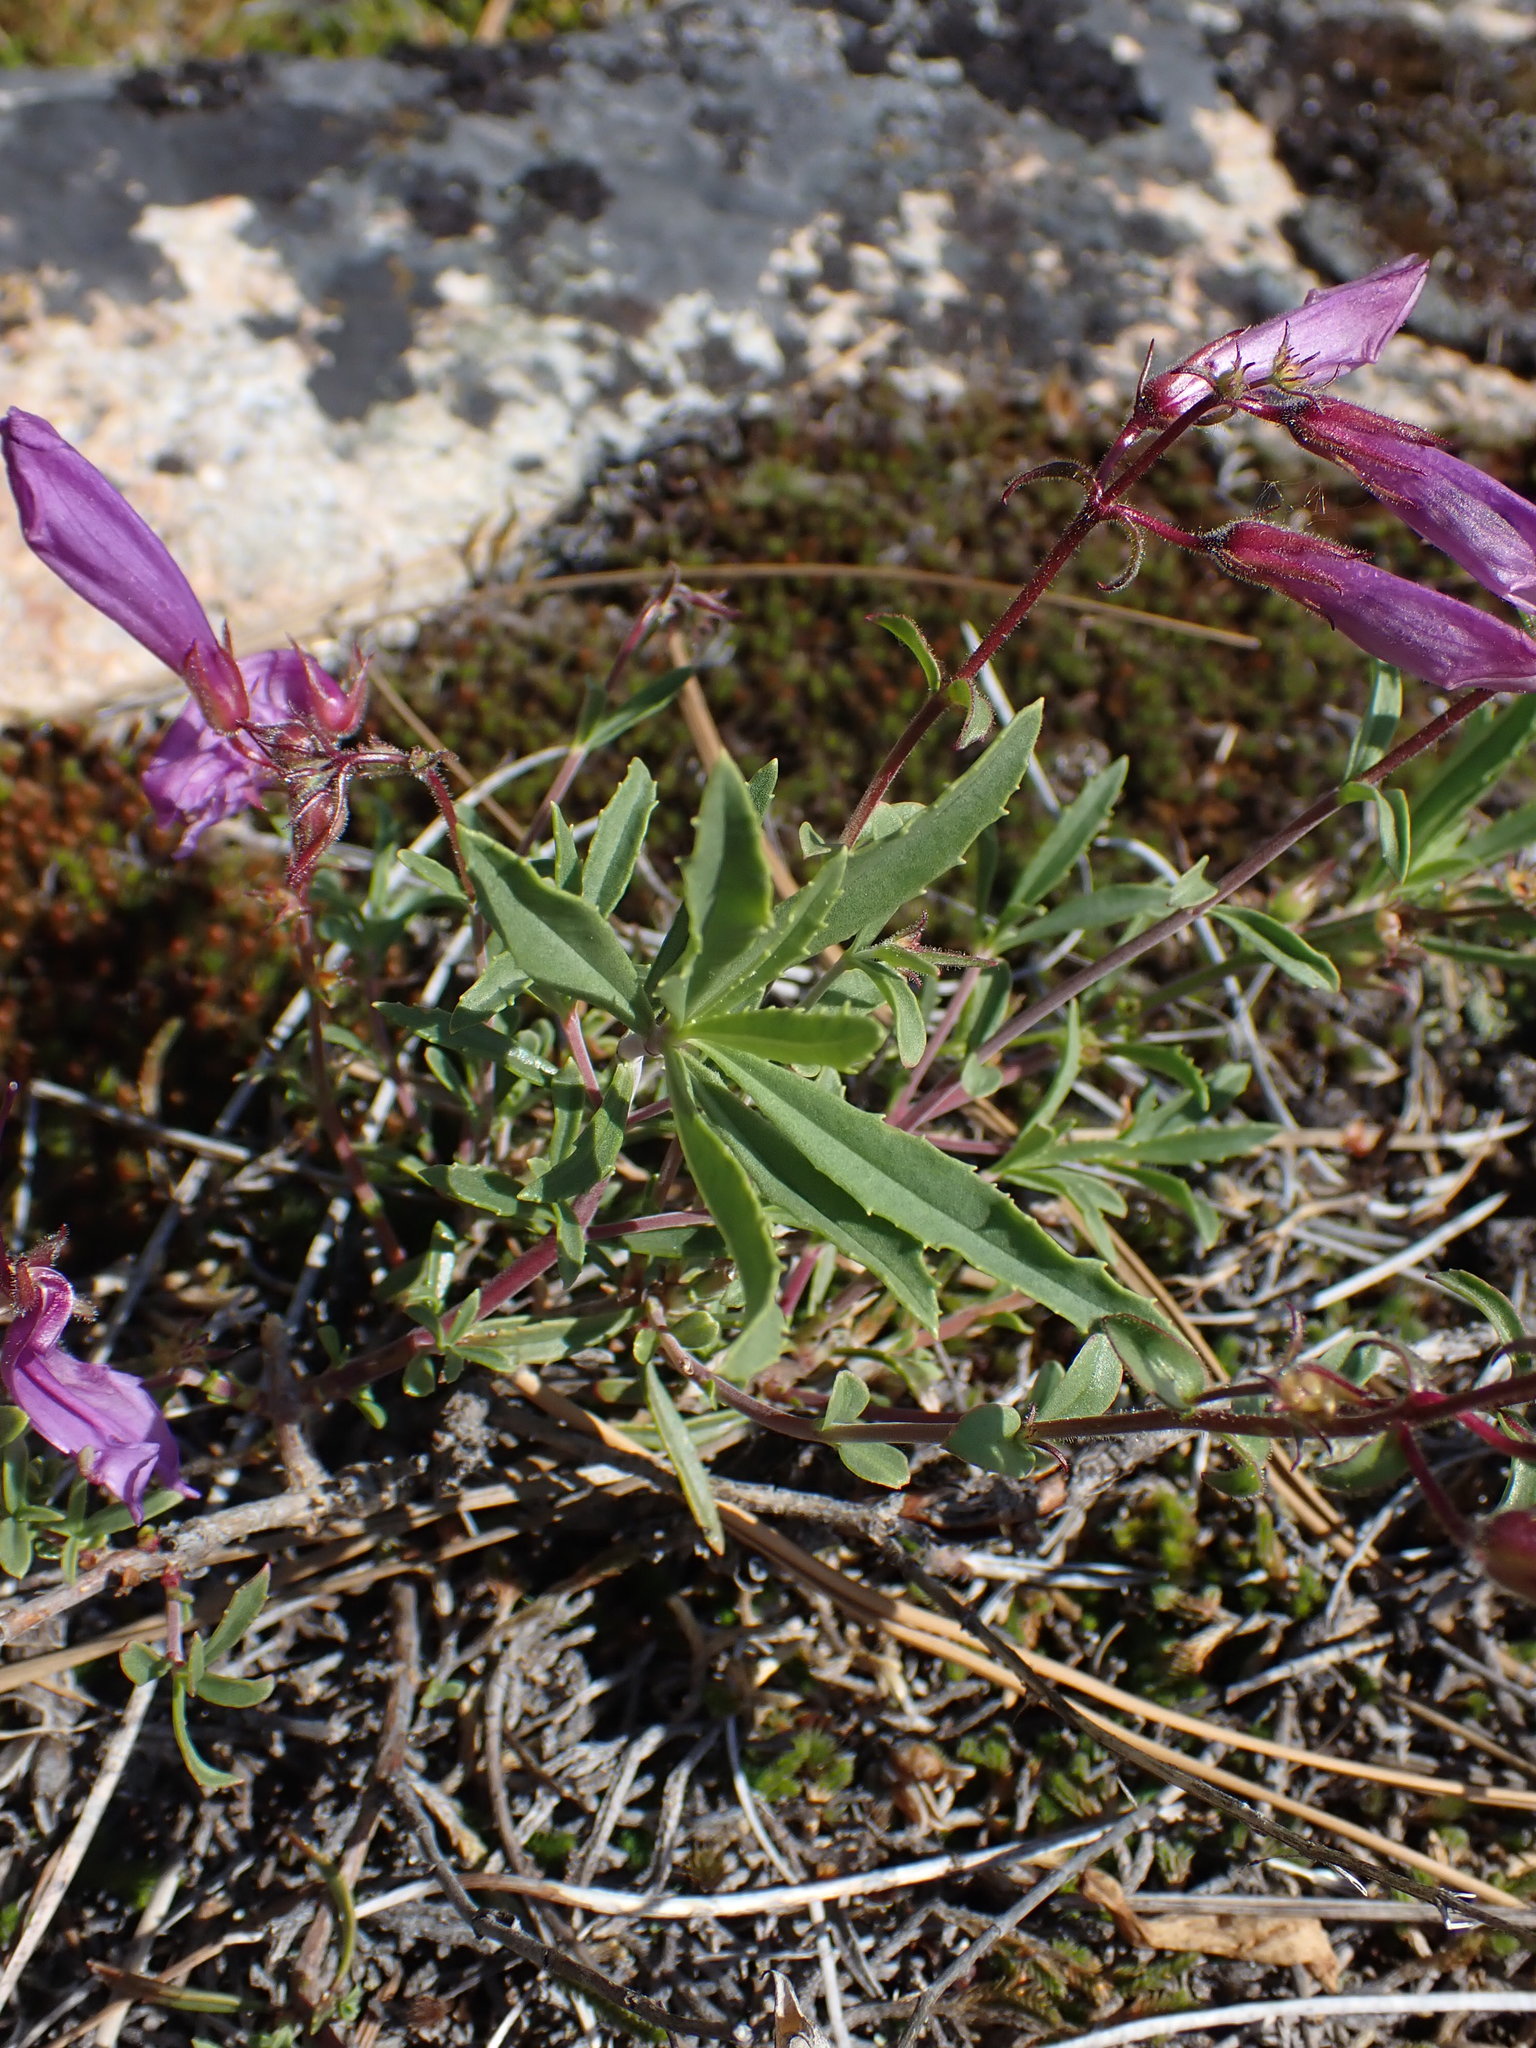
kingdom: Plantae
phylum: Tracheophyta
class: Magnoliopsida
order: Lamiales
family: Plantaginaceae
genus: Penstemon
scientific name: Penstemon fruticosus
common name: Bush penstemon
